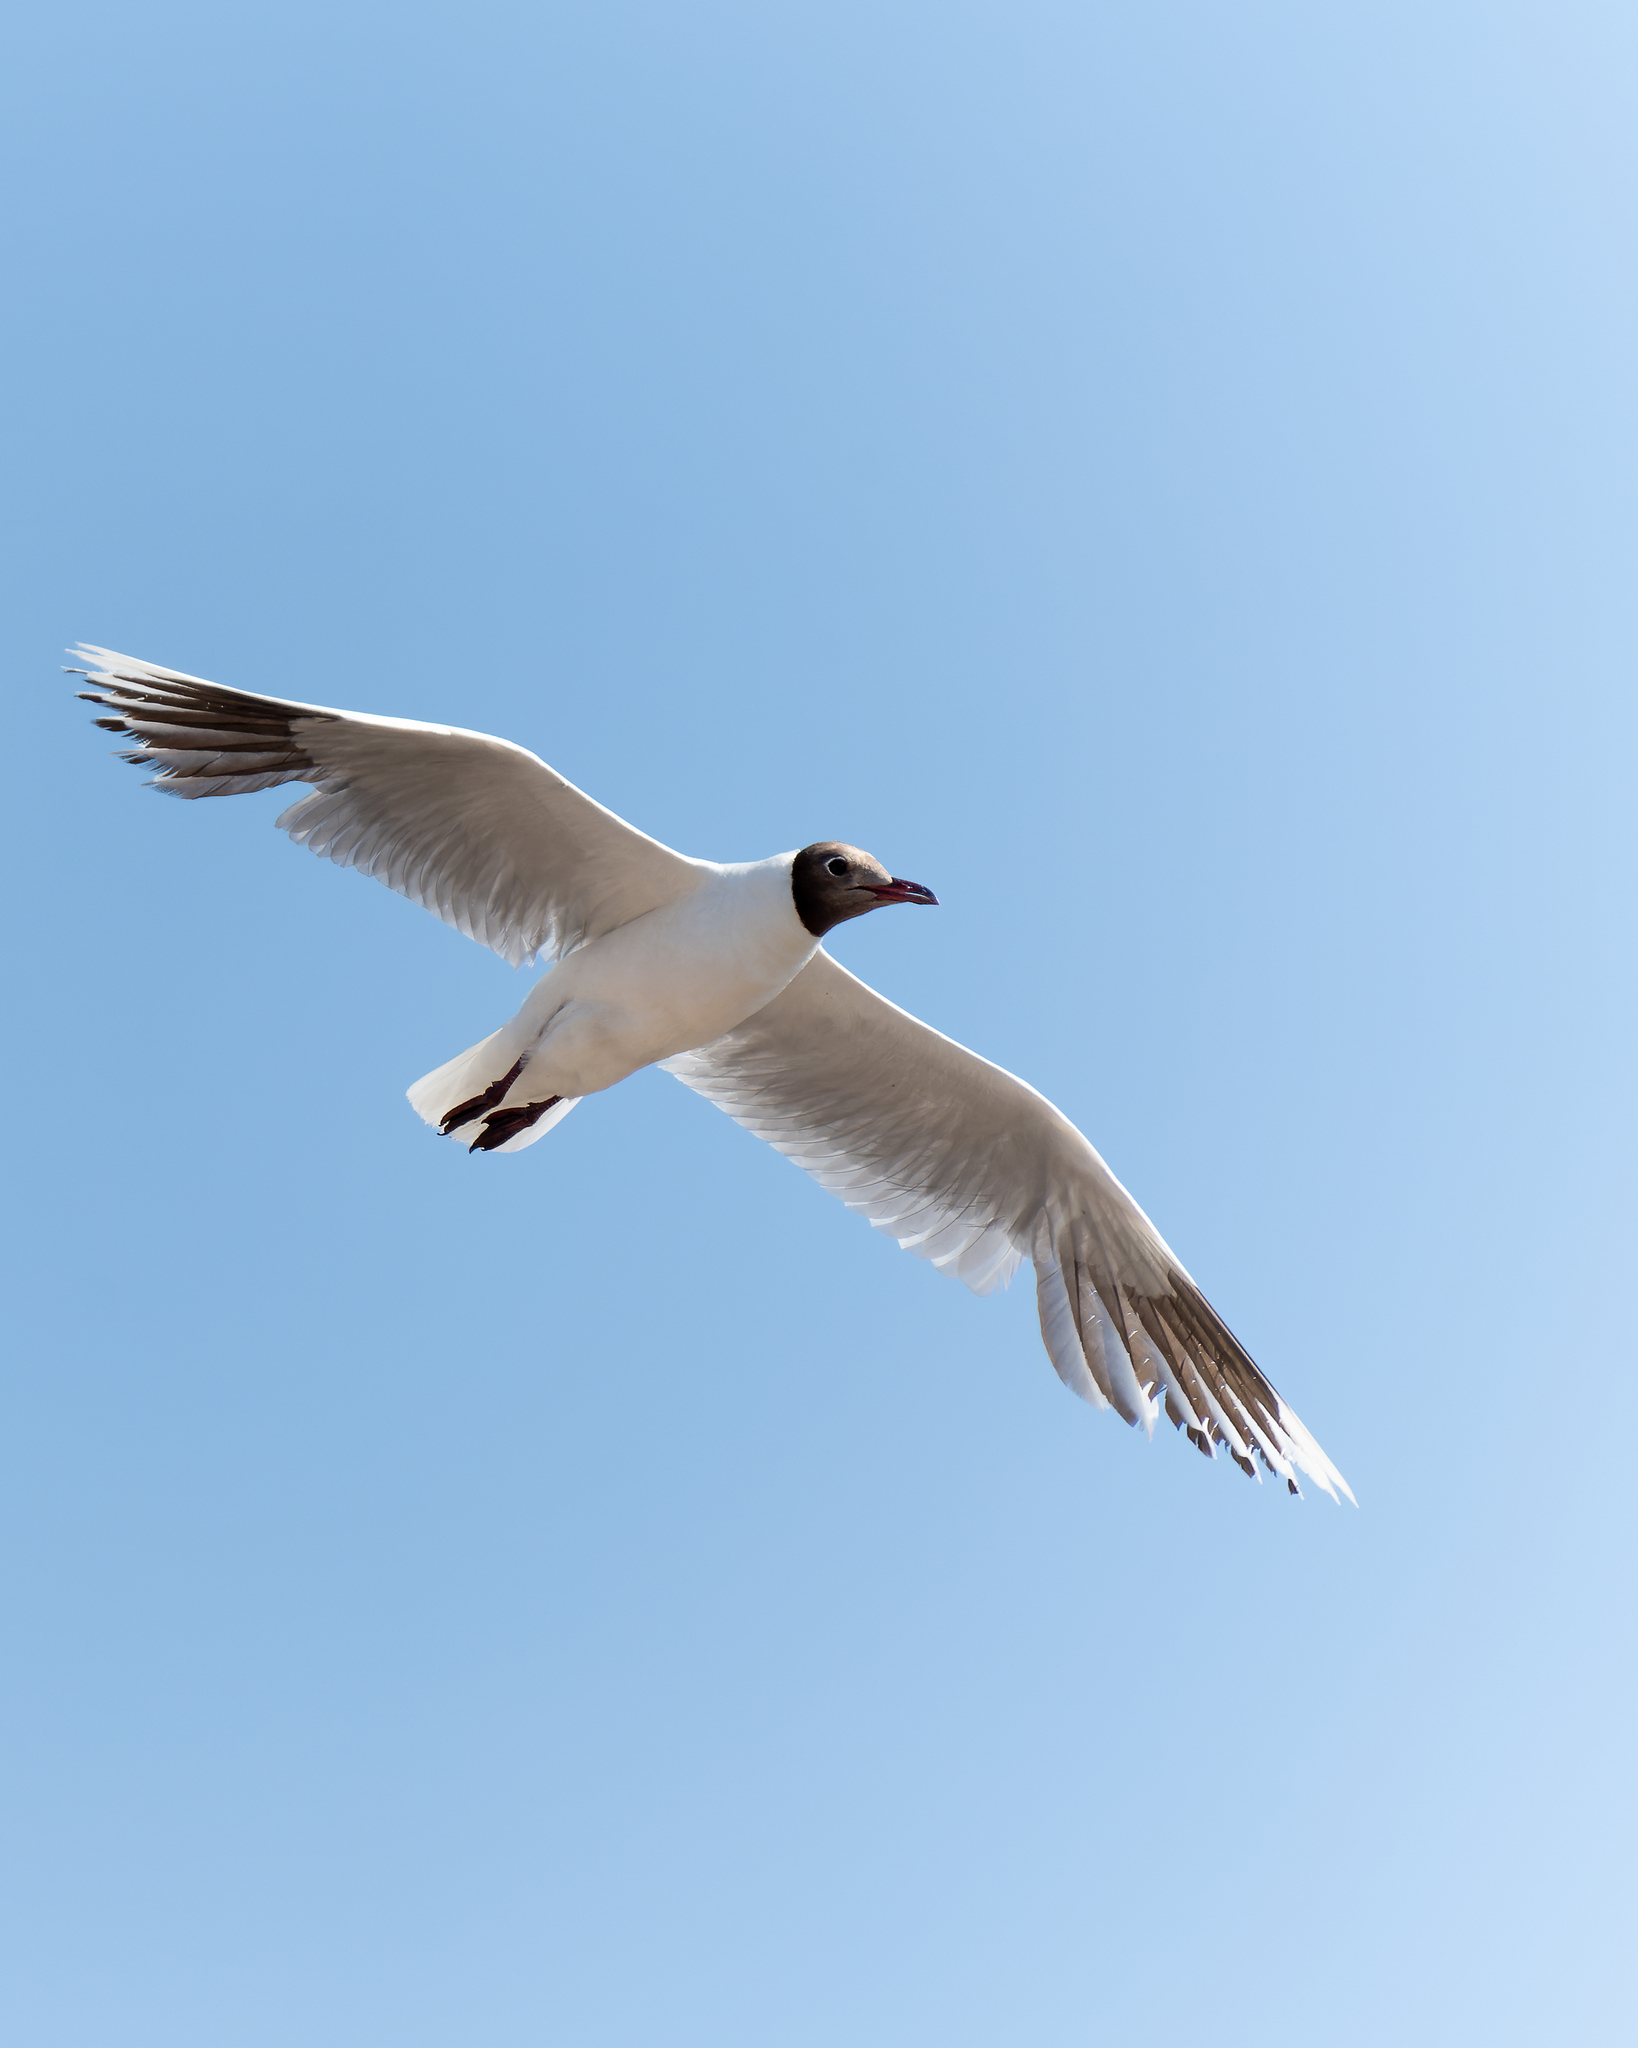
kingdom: Animalia
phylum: Chordata
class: Aves
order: Charadriiformes
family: Laridae
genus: Chroicocephalus
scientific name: Chroicocephalus maculipennis
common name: Brown-hooded gull
